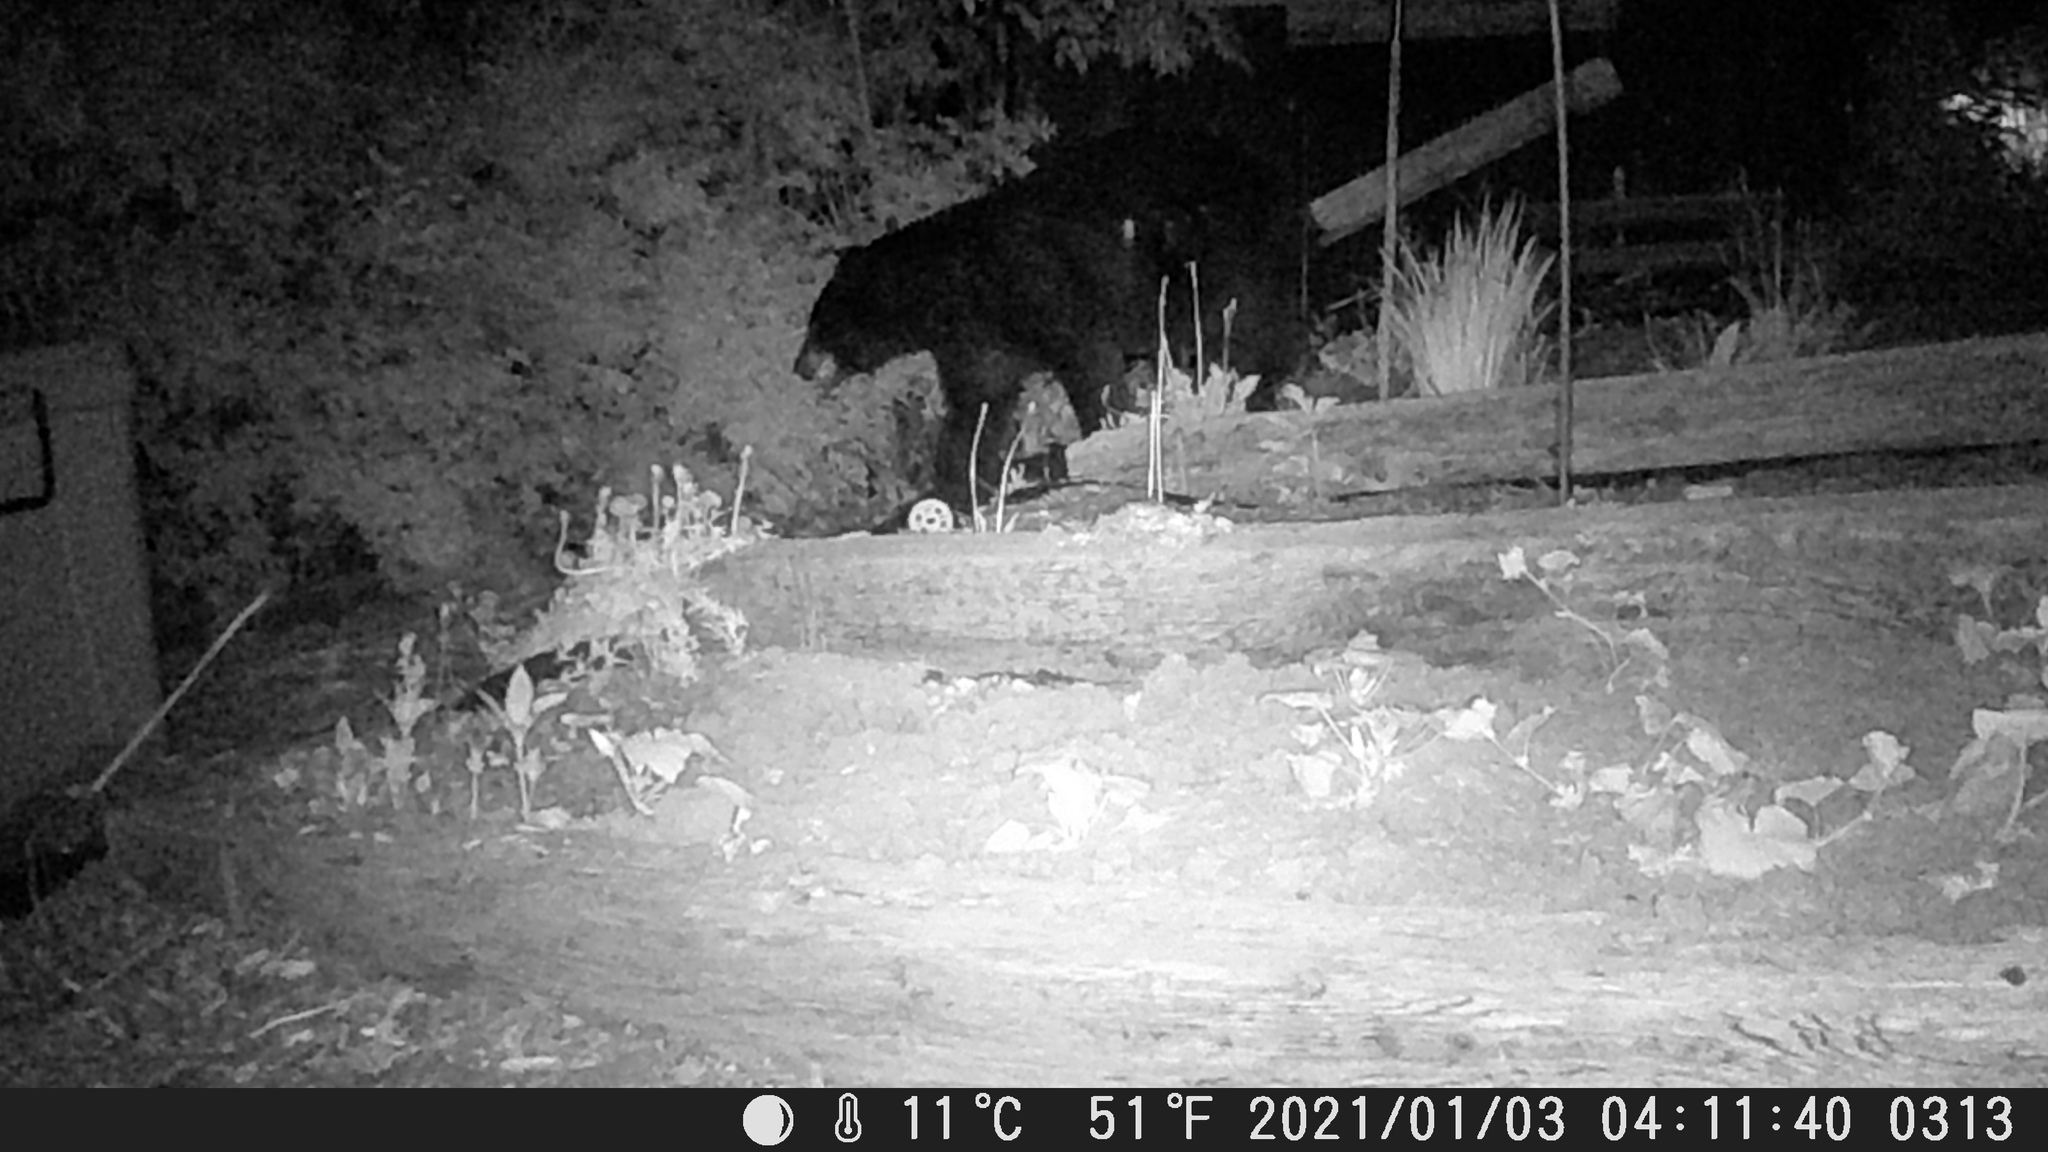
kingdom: Animalia
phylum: Chordata
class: Mammalia
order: Carnivora
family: Ursidae
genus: Ursus
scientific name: Ursus americanus
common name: American black bear
